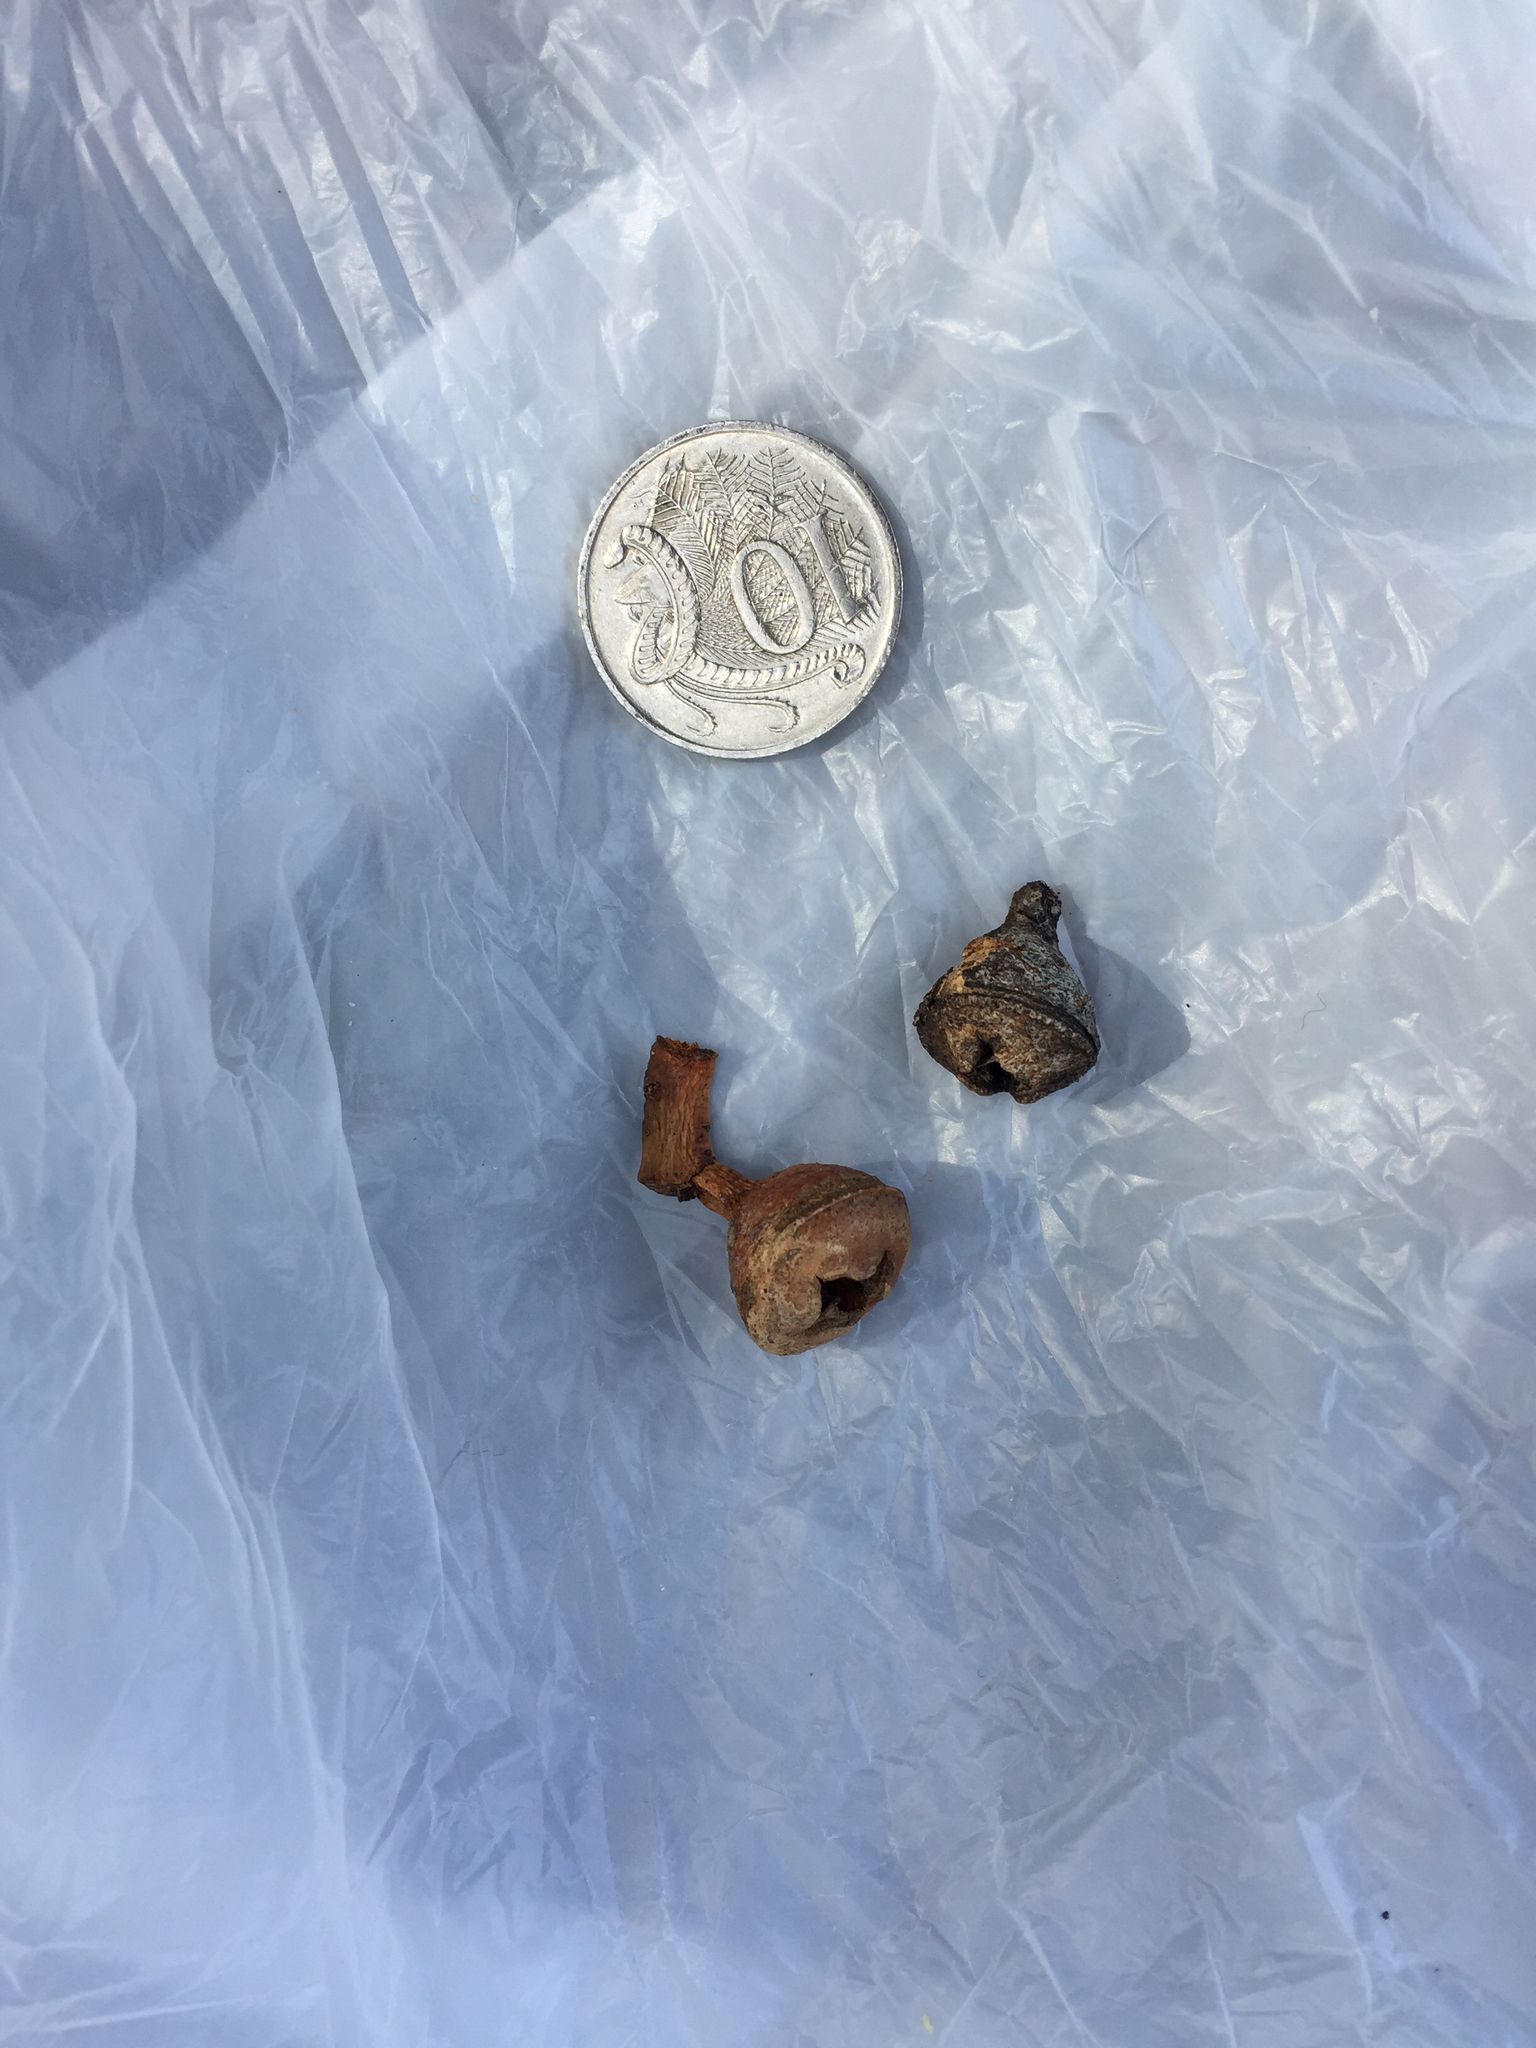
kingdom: Plantae
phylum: Tracheophyta
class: Magnoliopsida
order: Myrtales
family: Myrtaceae
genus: Eucalyptus
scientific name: Eucalyptus globulus
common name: Southern blue-gum
